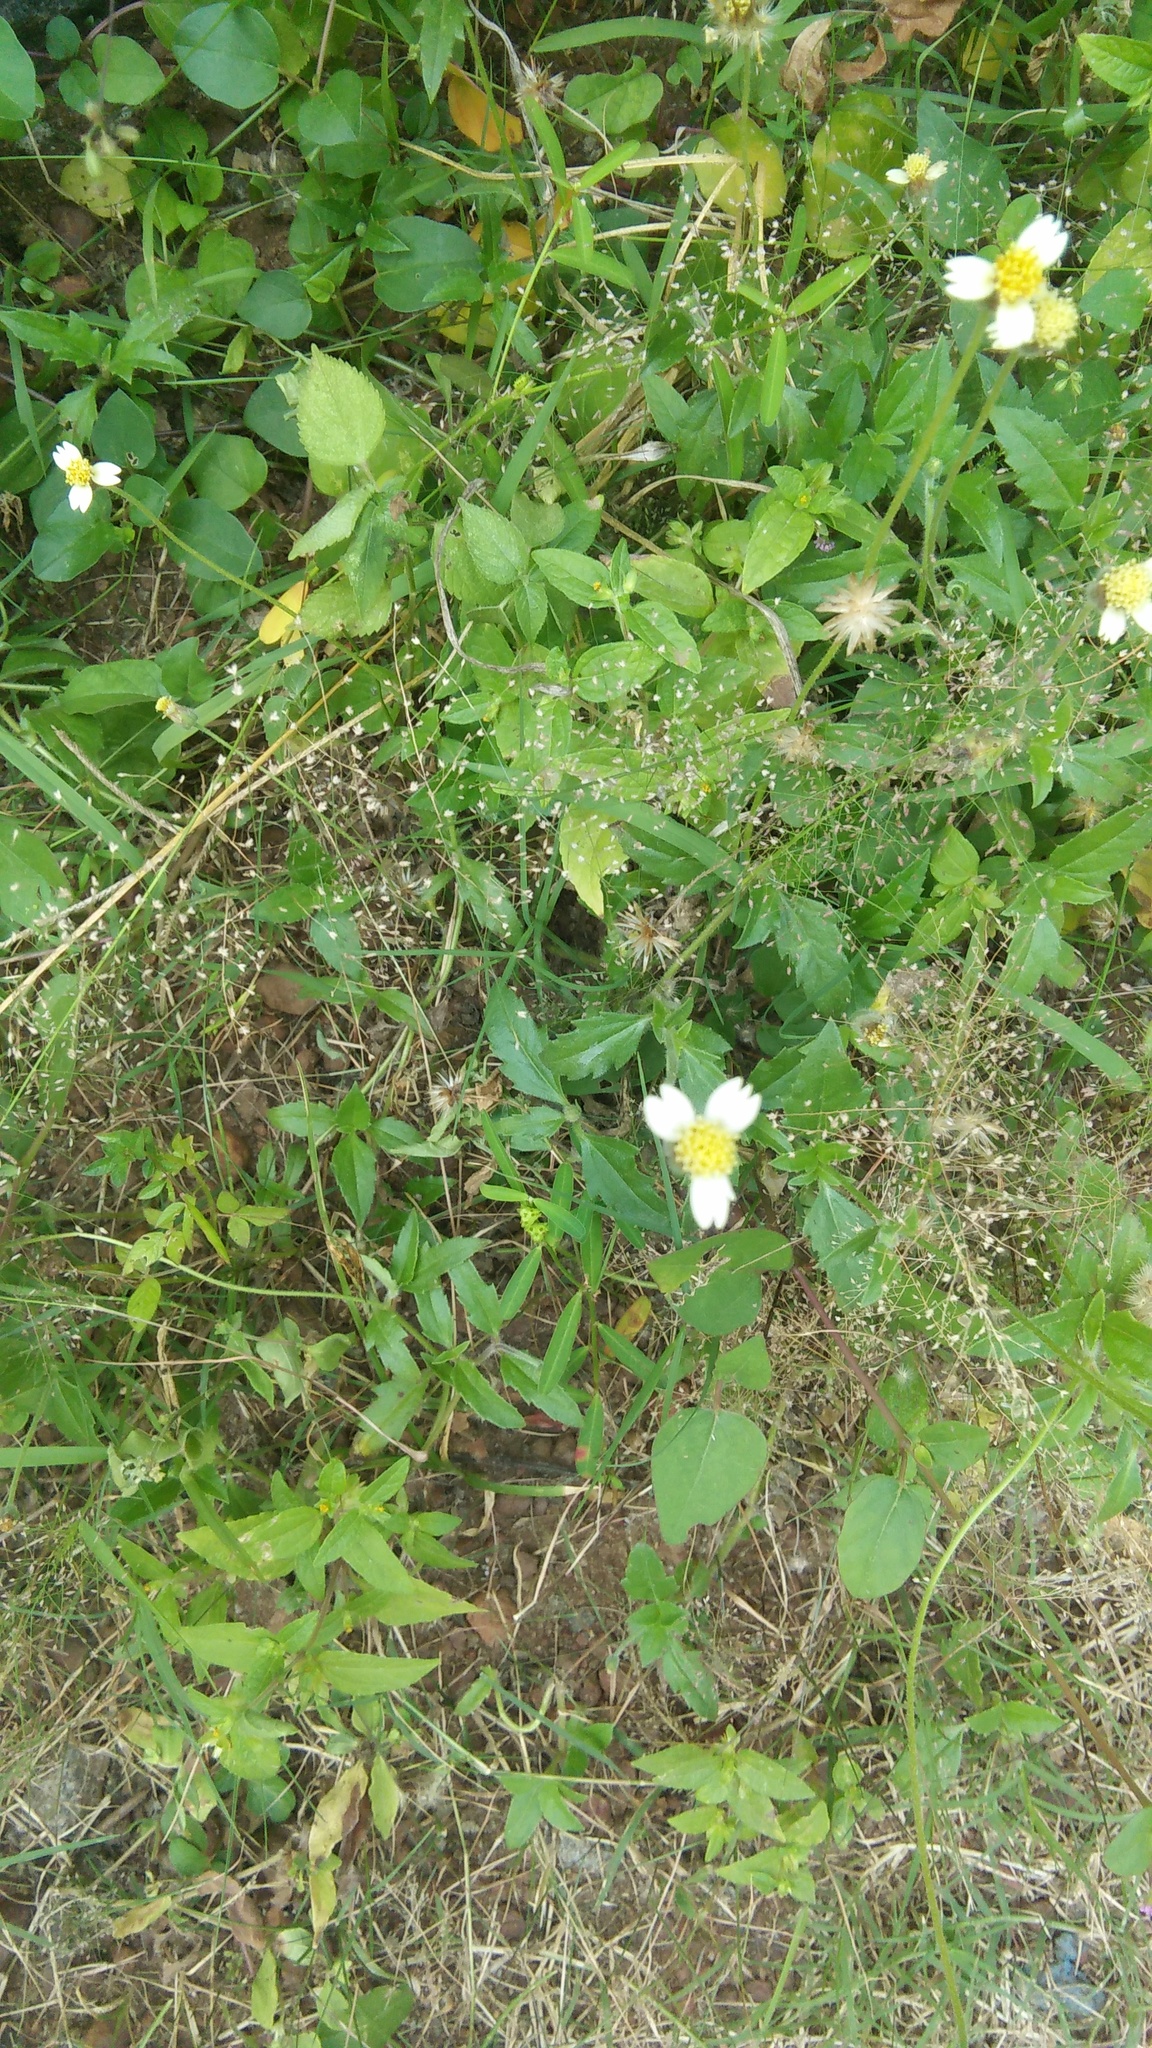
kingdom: Plantae
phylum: Tracheophyta
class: Magnoliopsida
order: Asterales
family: Asteraceae
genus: Tridax
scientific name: Tridax procumbens
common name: Coatbuttons
